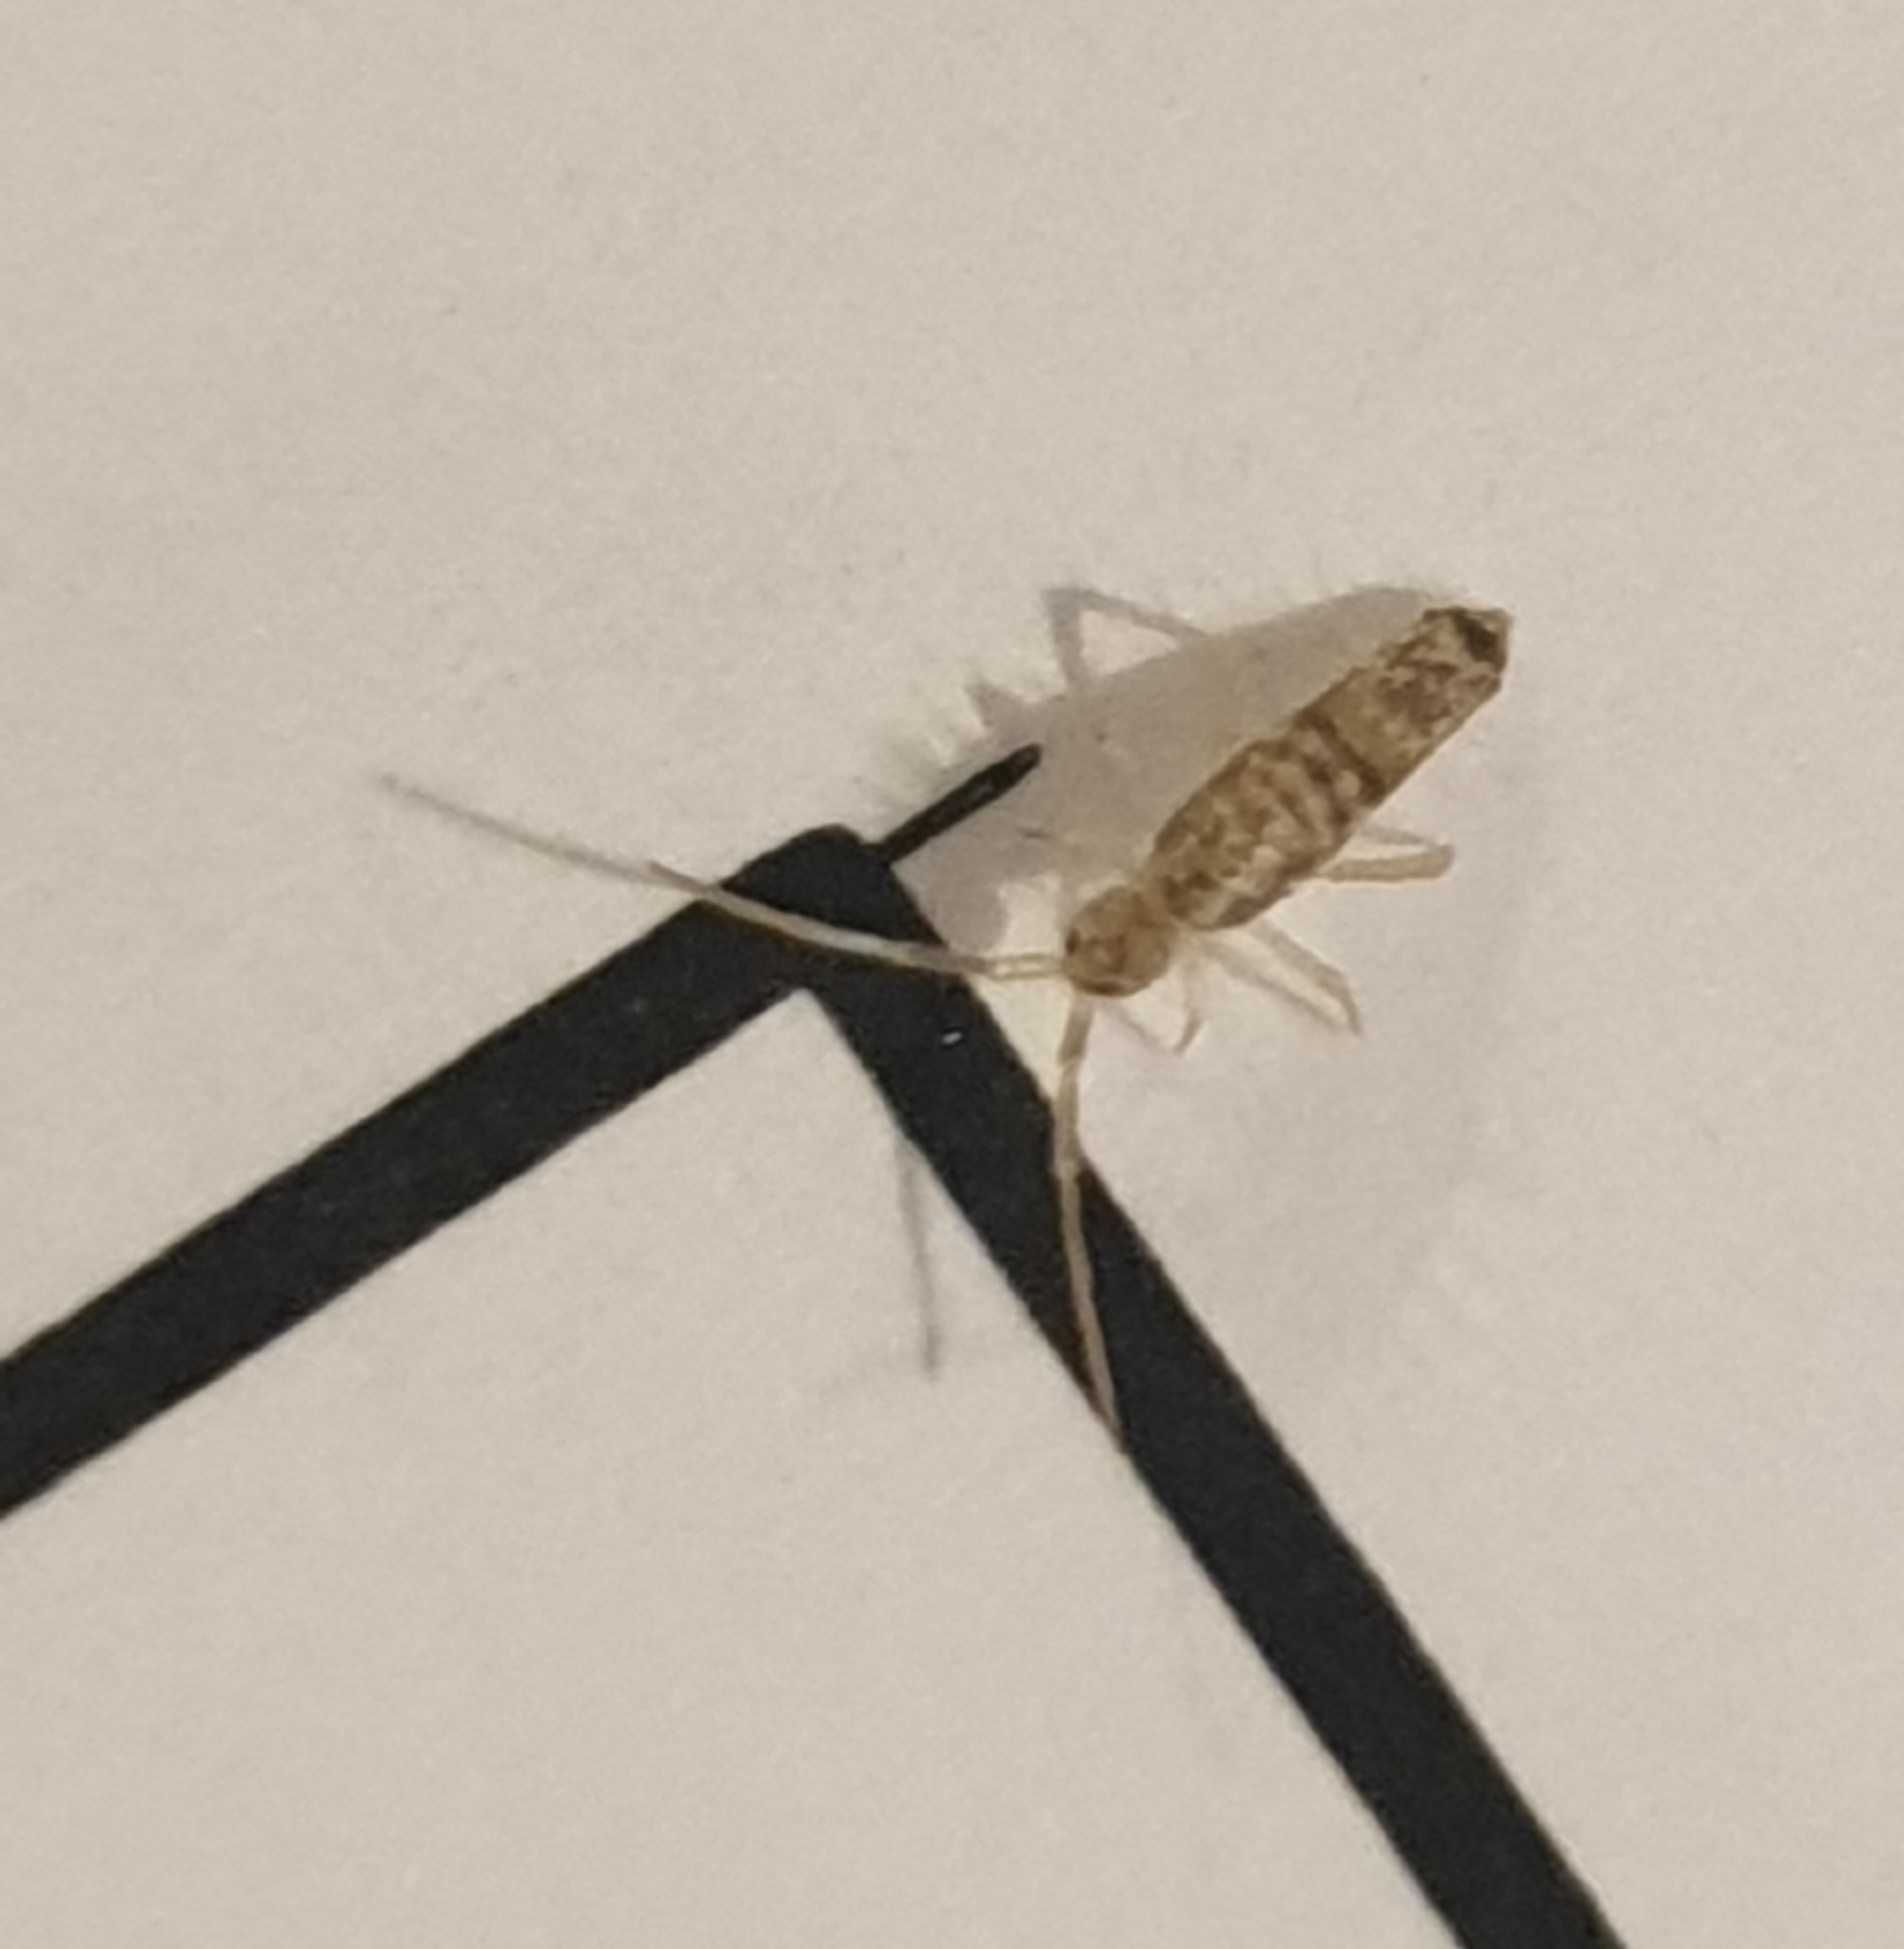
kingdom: Animalia
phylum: Arthropoda
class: Collembola
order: Entomobryomorpha
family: Entomobryidae
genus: Seira
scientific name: Seira musarum
